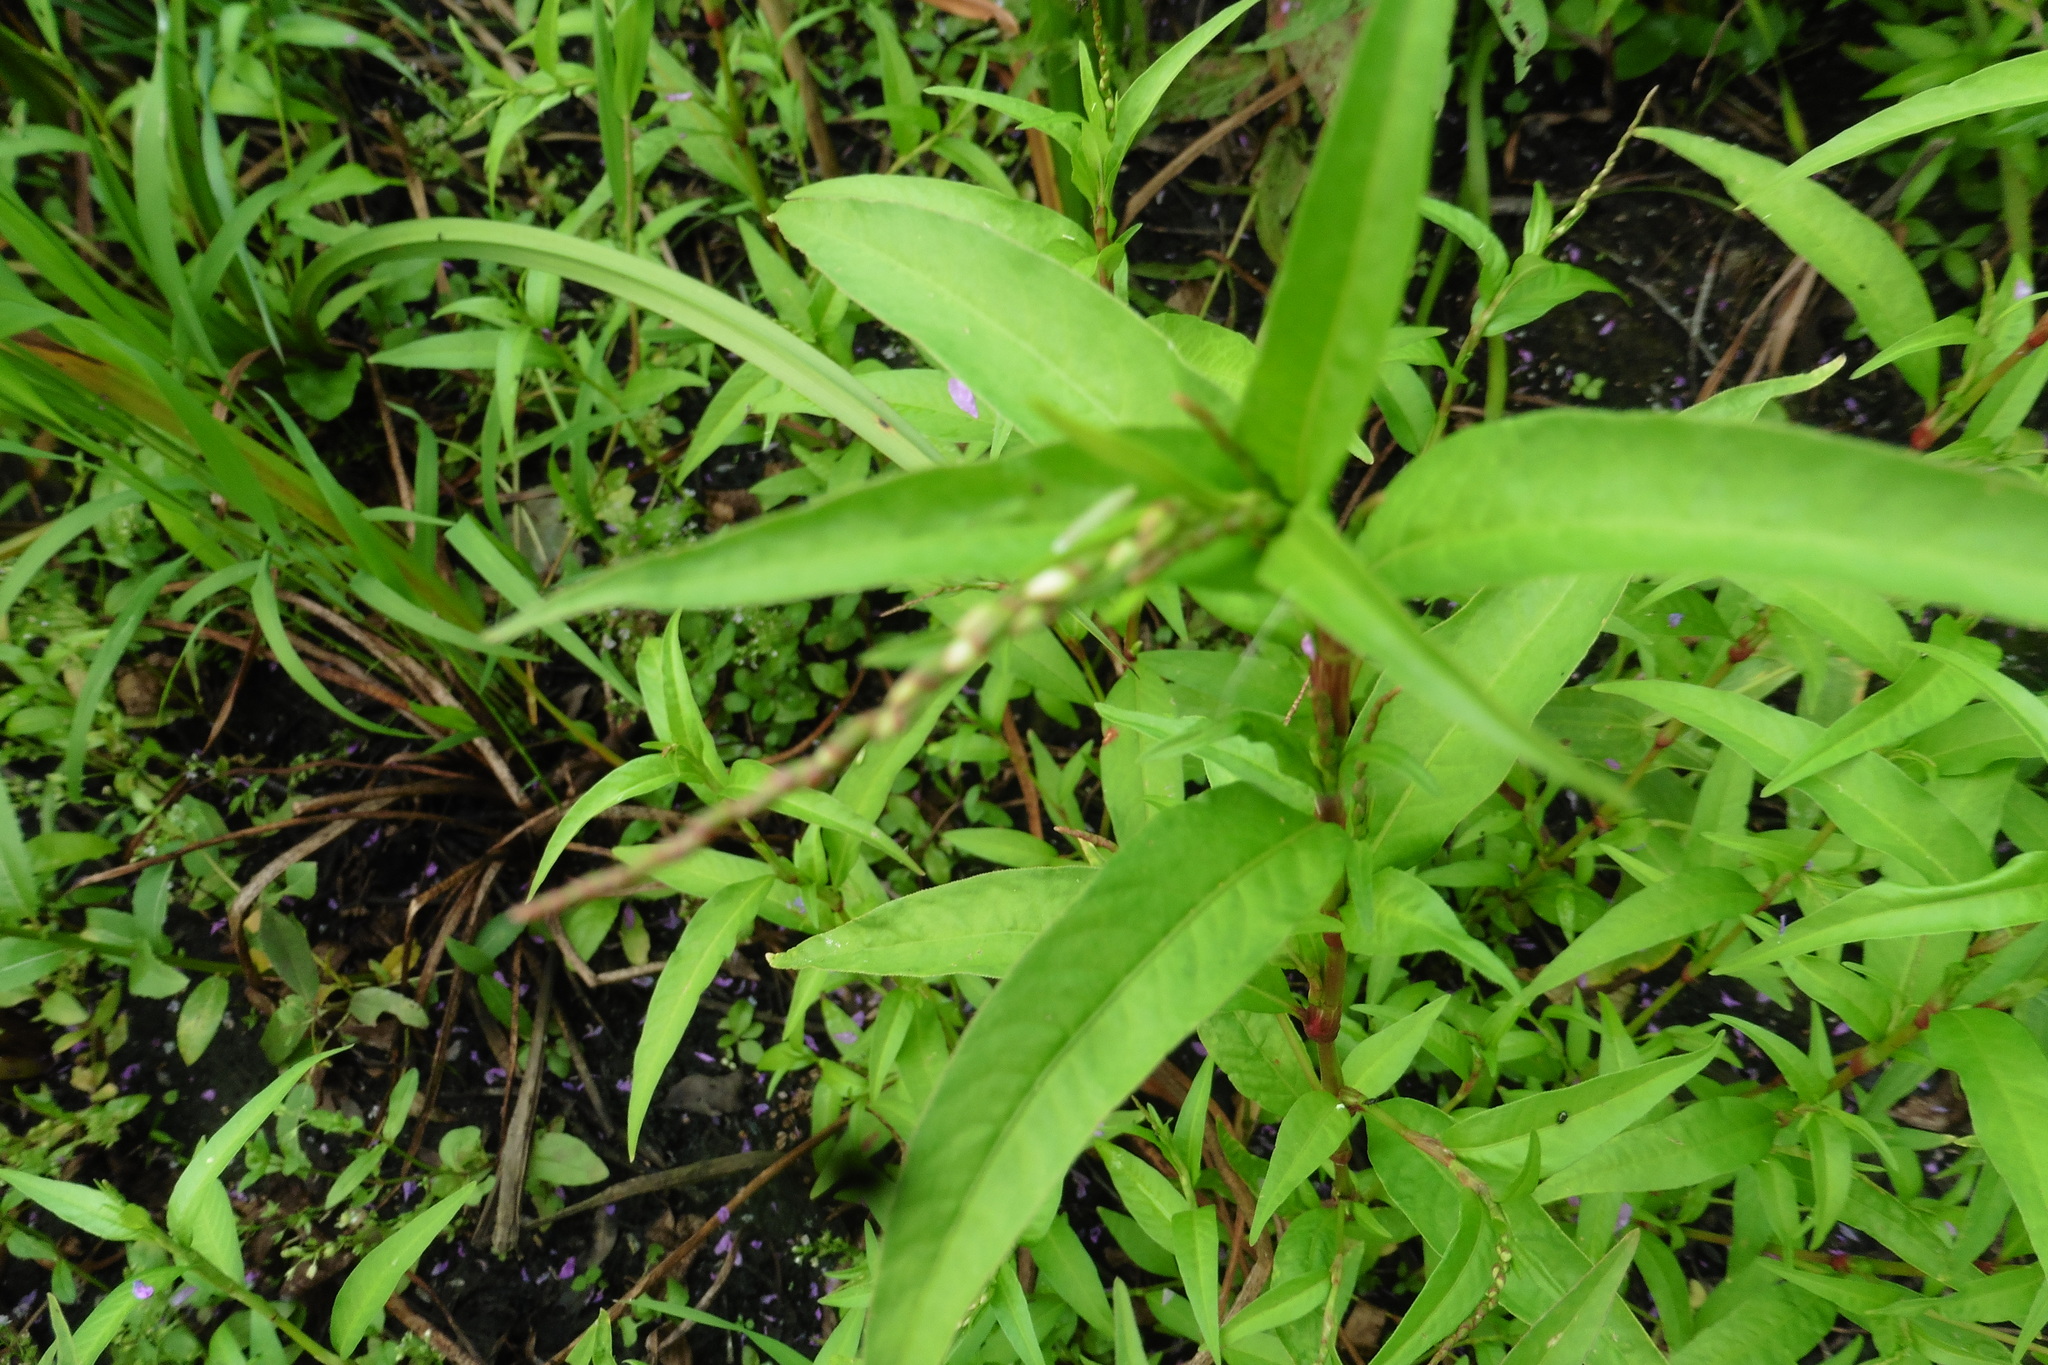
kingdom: Plantae
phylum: Tracheophyta
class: Magnoliopsida
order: Caryophyllales
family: Polygonaceae
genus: Persicaria
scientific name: Persicaria hydropiper
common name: Water-pepper
